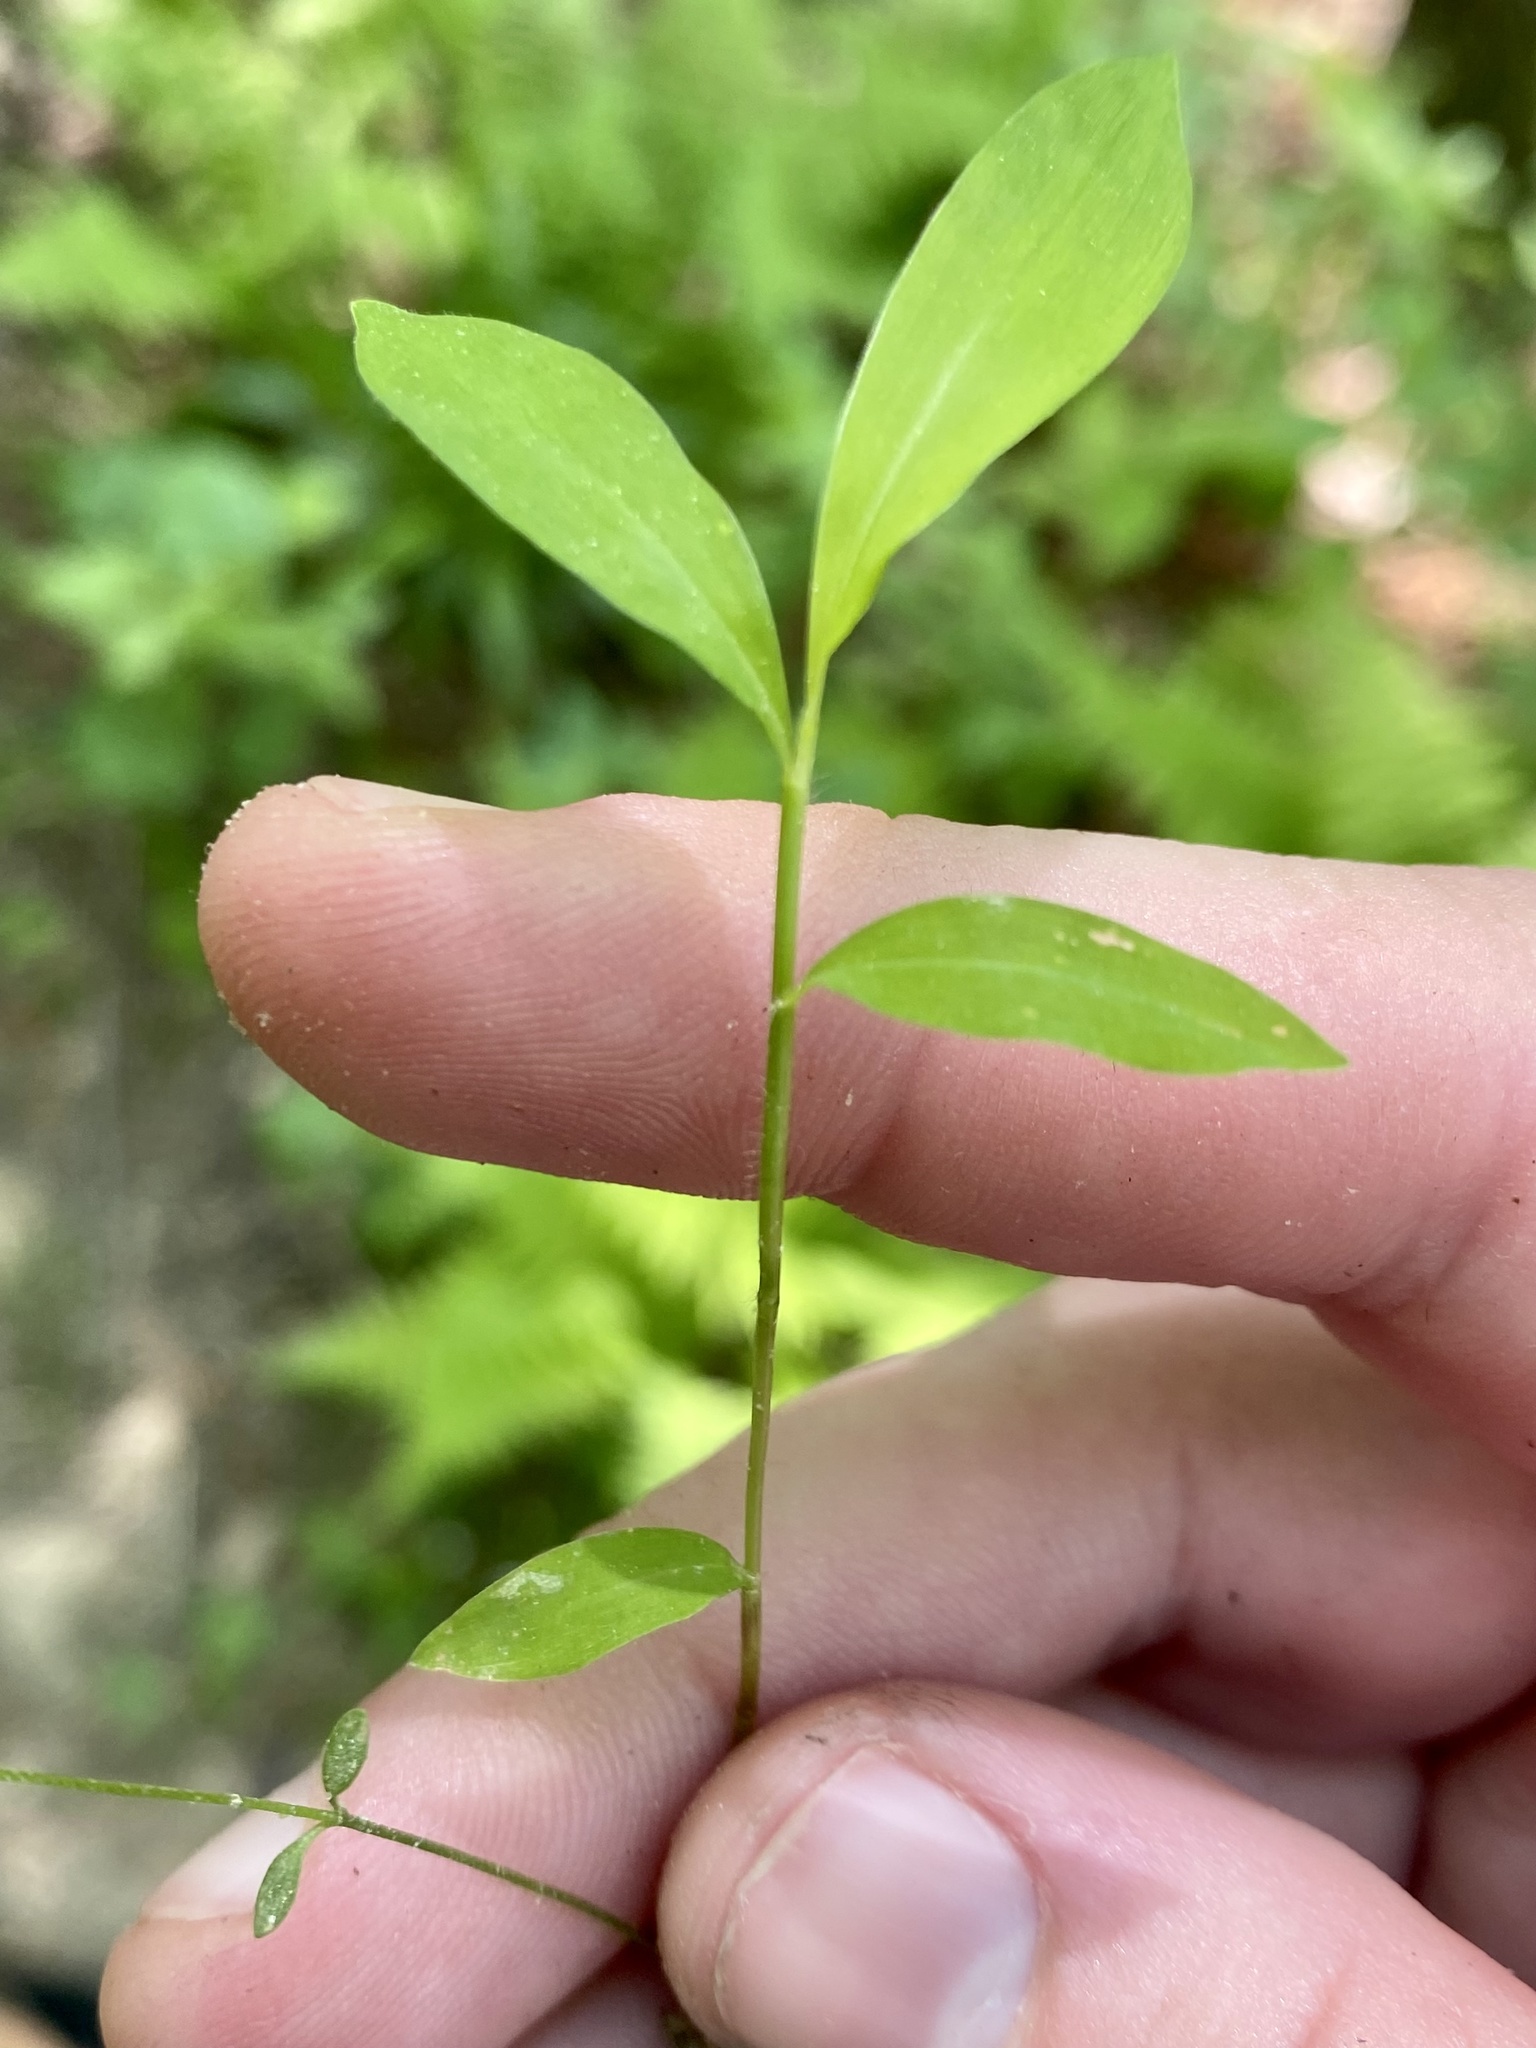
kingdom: Plantae
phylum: Tracheophyta
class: Liliopsida
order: Poales
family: Poaceae
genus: Microstegium
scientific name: Microstegium vimineum
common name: Japanese stiltgrass
